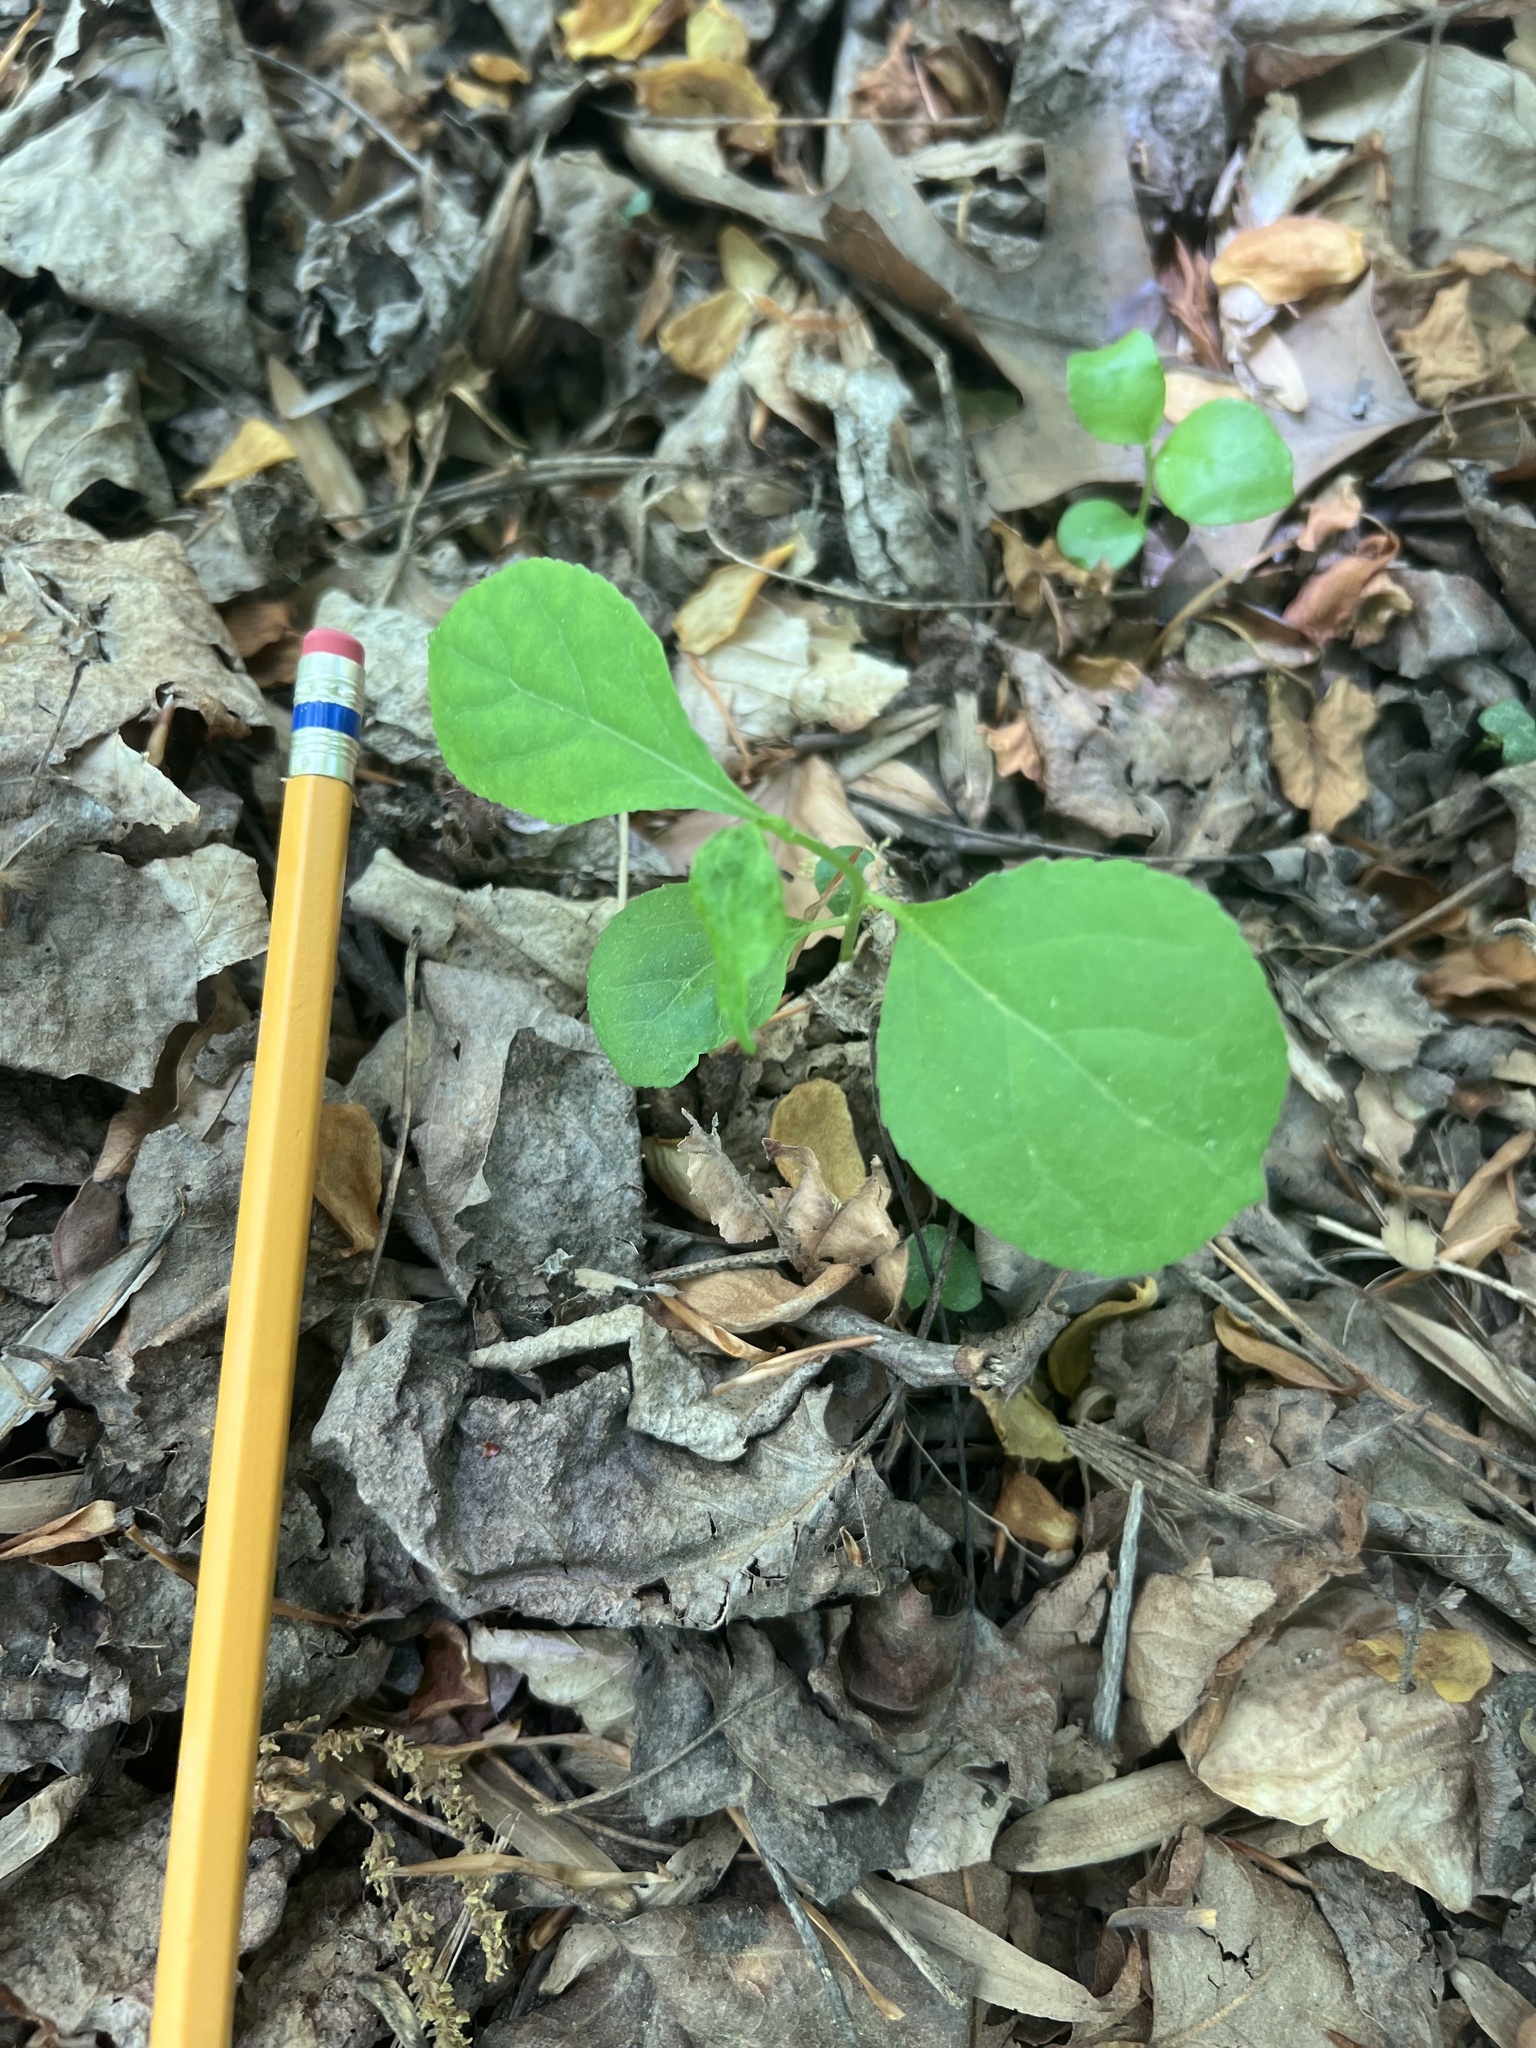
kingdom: Plantae
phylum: Tracheophyta
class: Magnoliopsida
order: Celastrales
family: Celastraceae
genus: Celastrus
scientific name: Celastrus orbiculatus
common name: Oriental bittersweet
